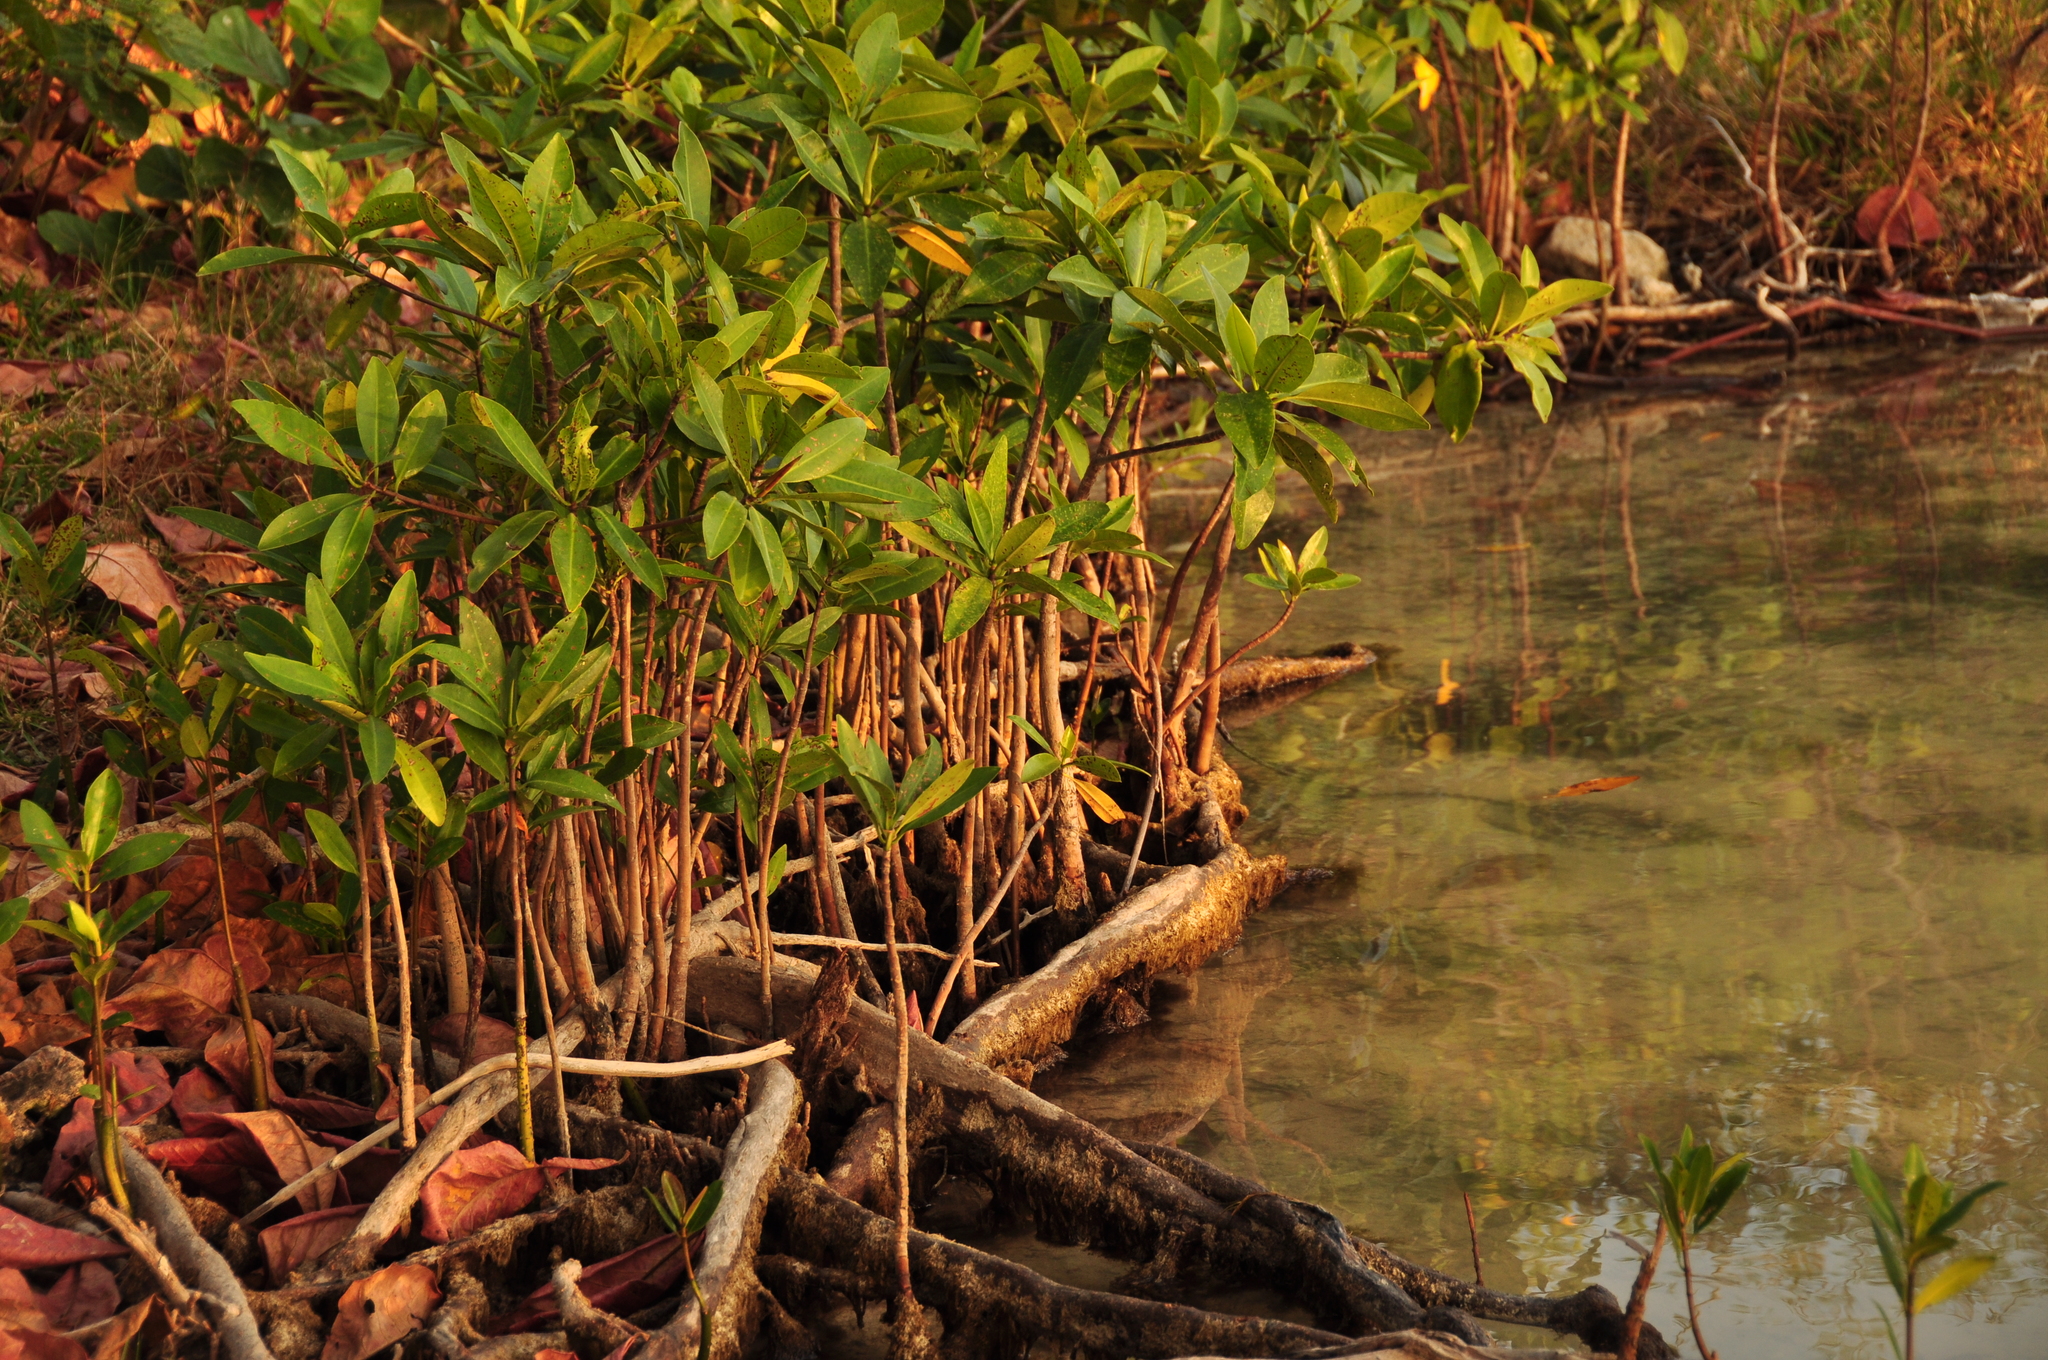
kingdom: Plantae
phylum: Tracheophyta
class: Magnoliopsida
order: Malpighiales
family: Rhizophoraceae
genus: Rhizophora
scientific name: Rhizophora mangle
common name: Red mangrove
